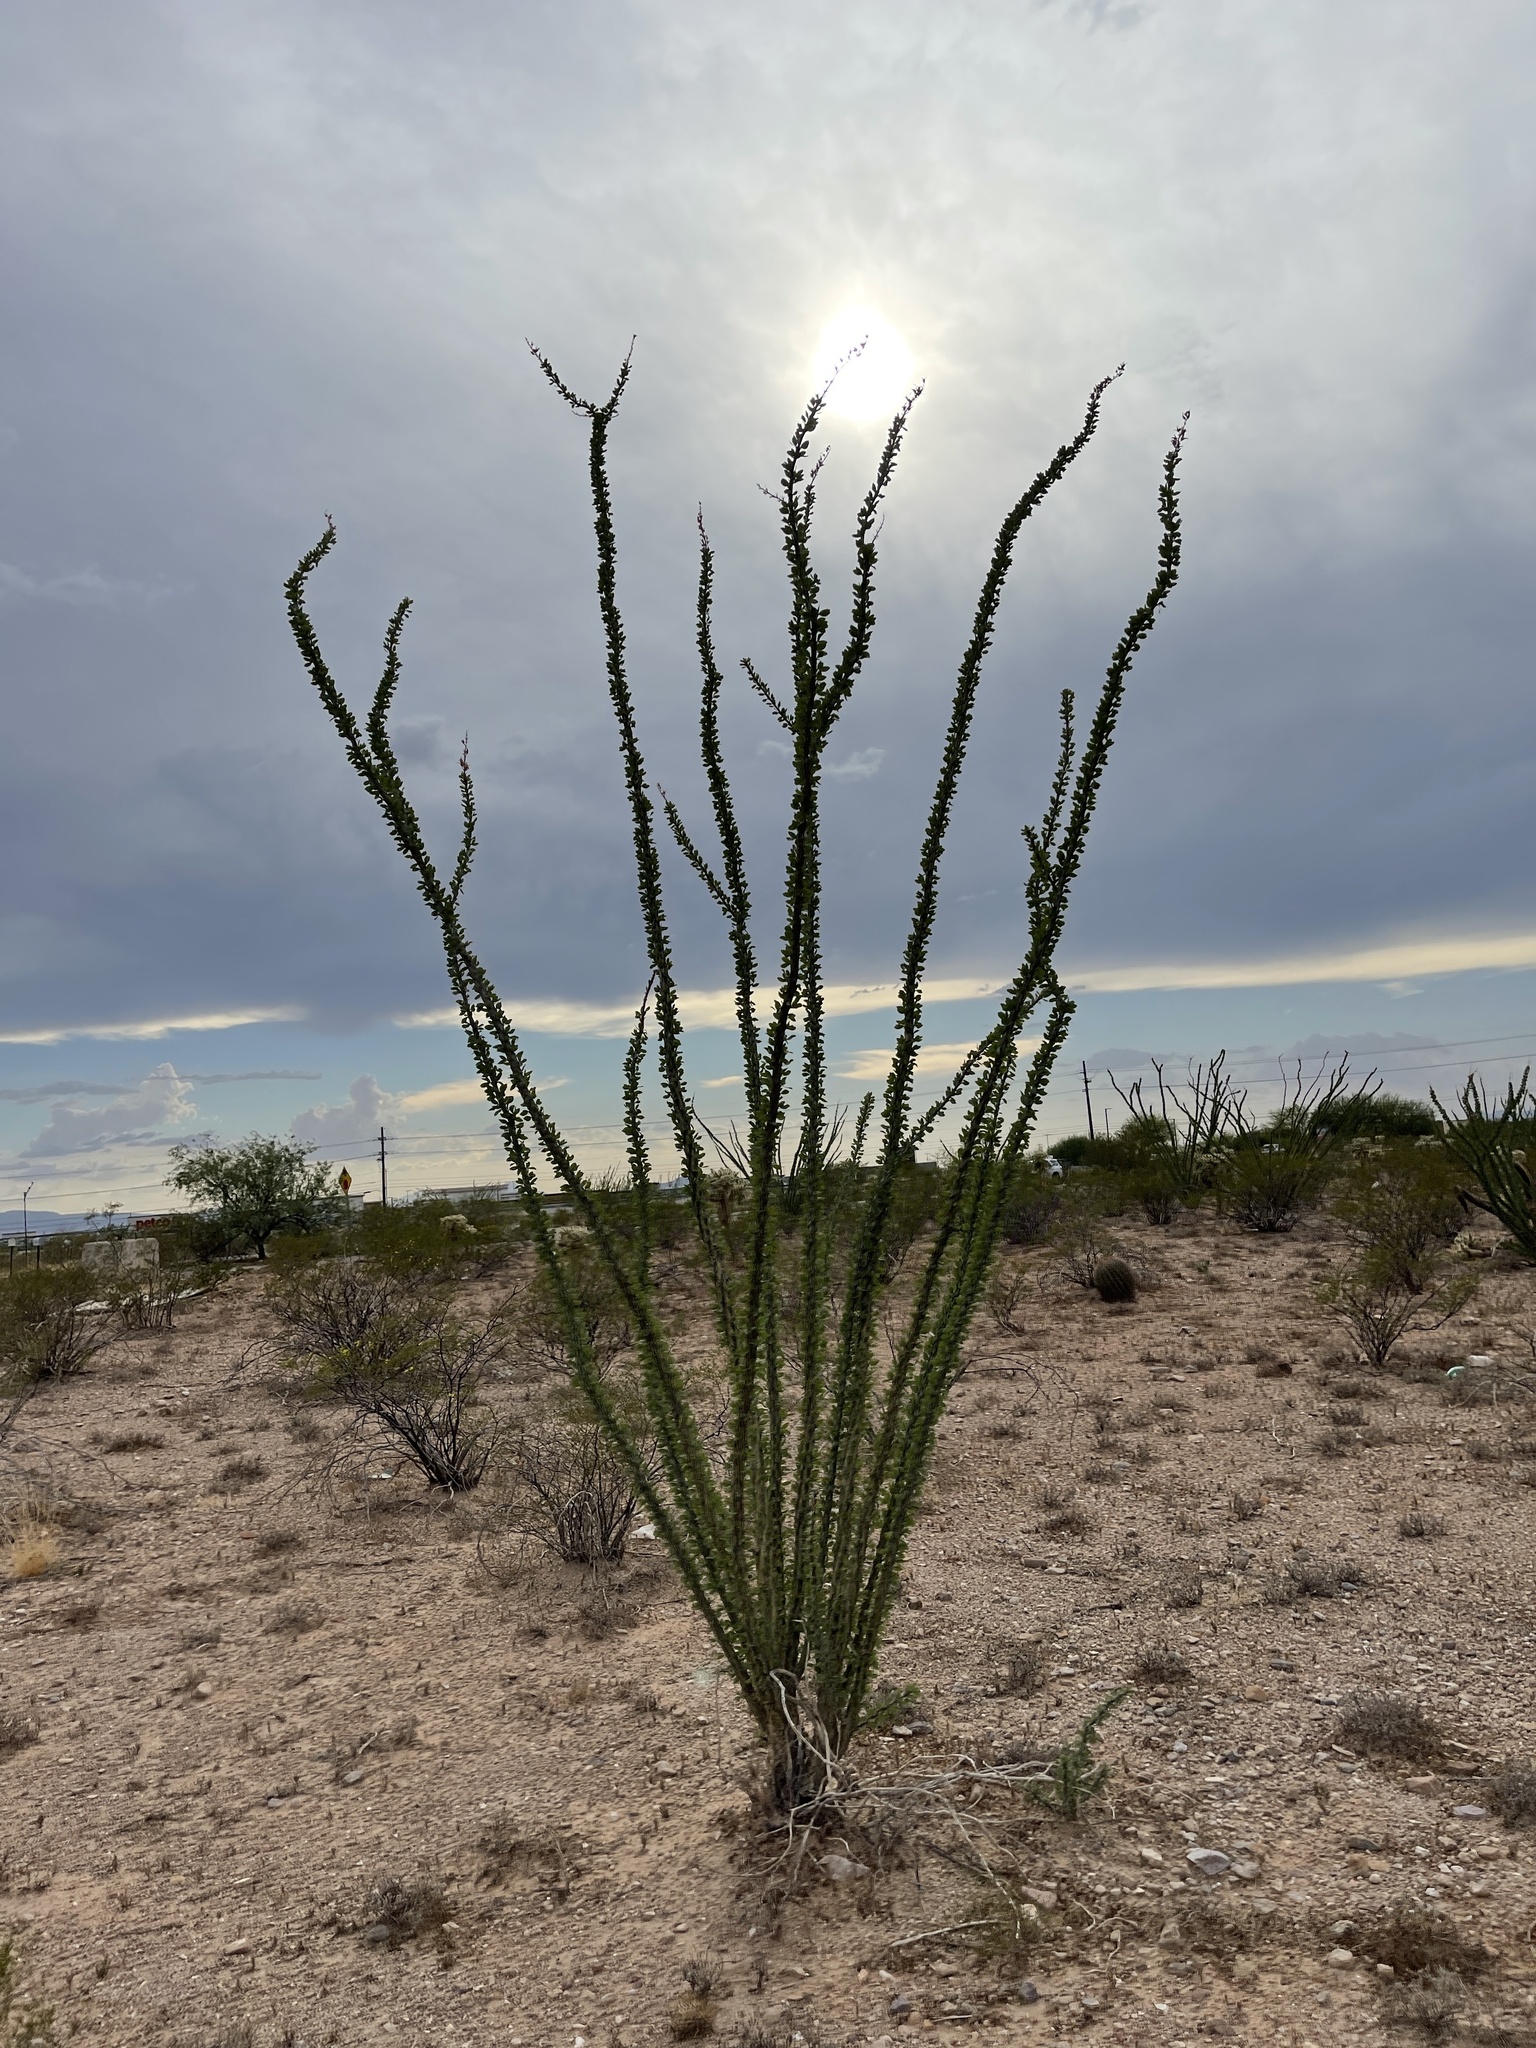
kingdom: Plantae
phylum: Tracheophyta
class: Magnoliopsida
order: Ericales
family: Fouquieriaceae
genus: Fouquieria
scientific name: Fouquieria splendens
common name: Vine-cactus
